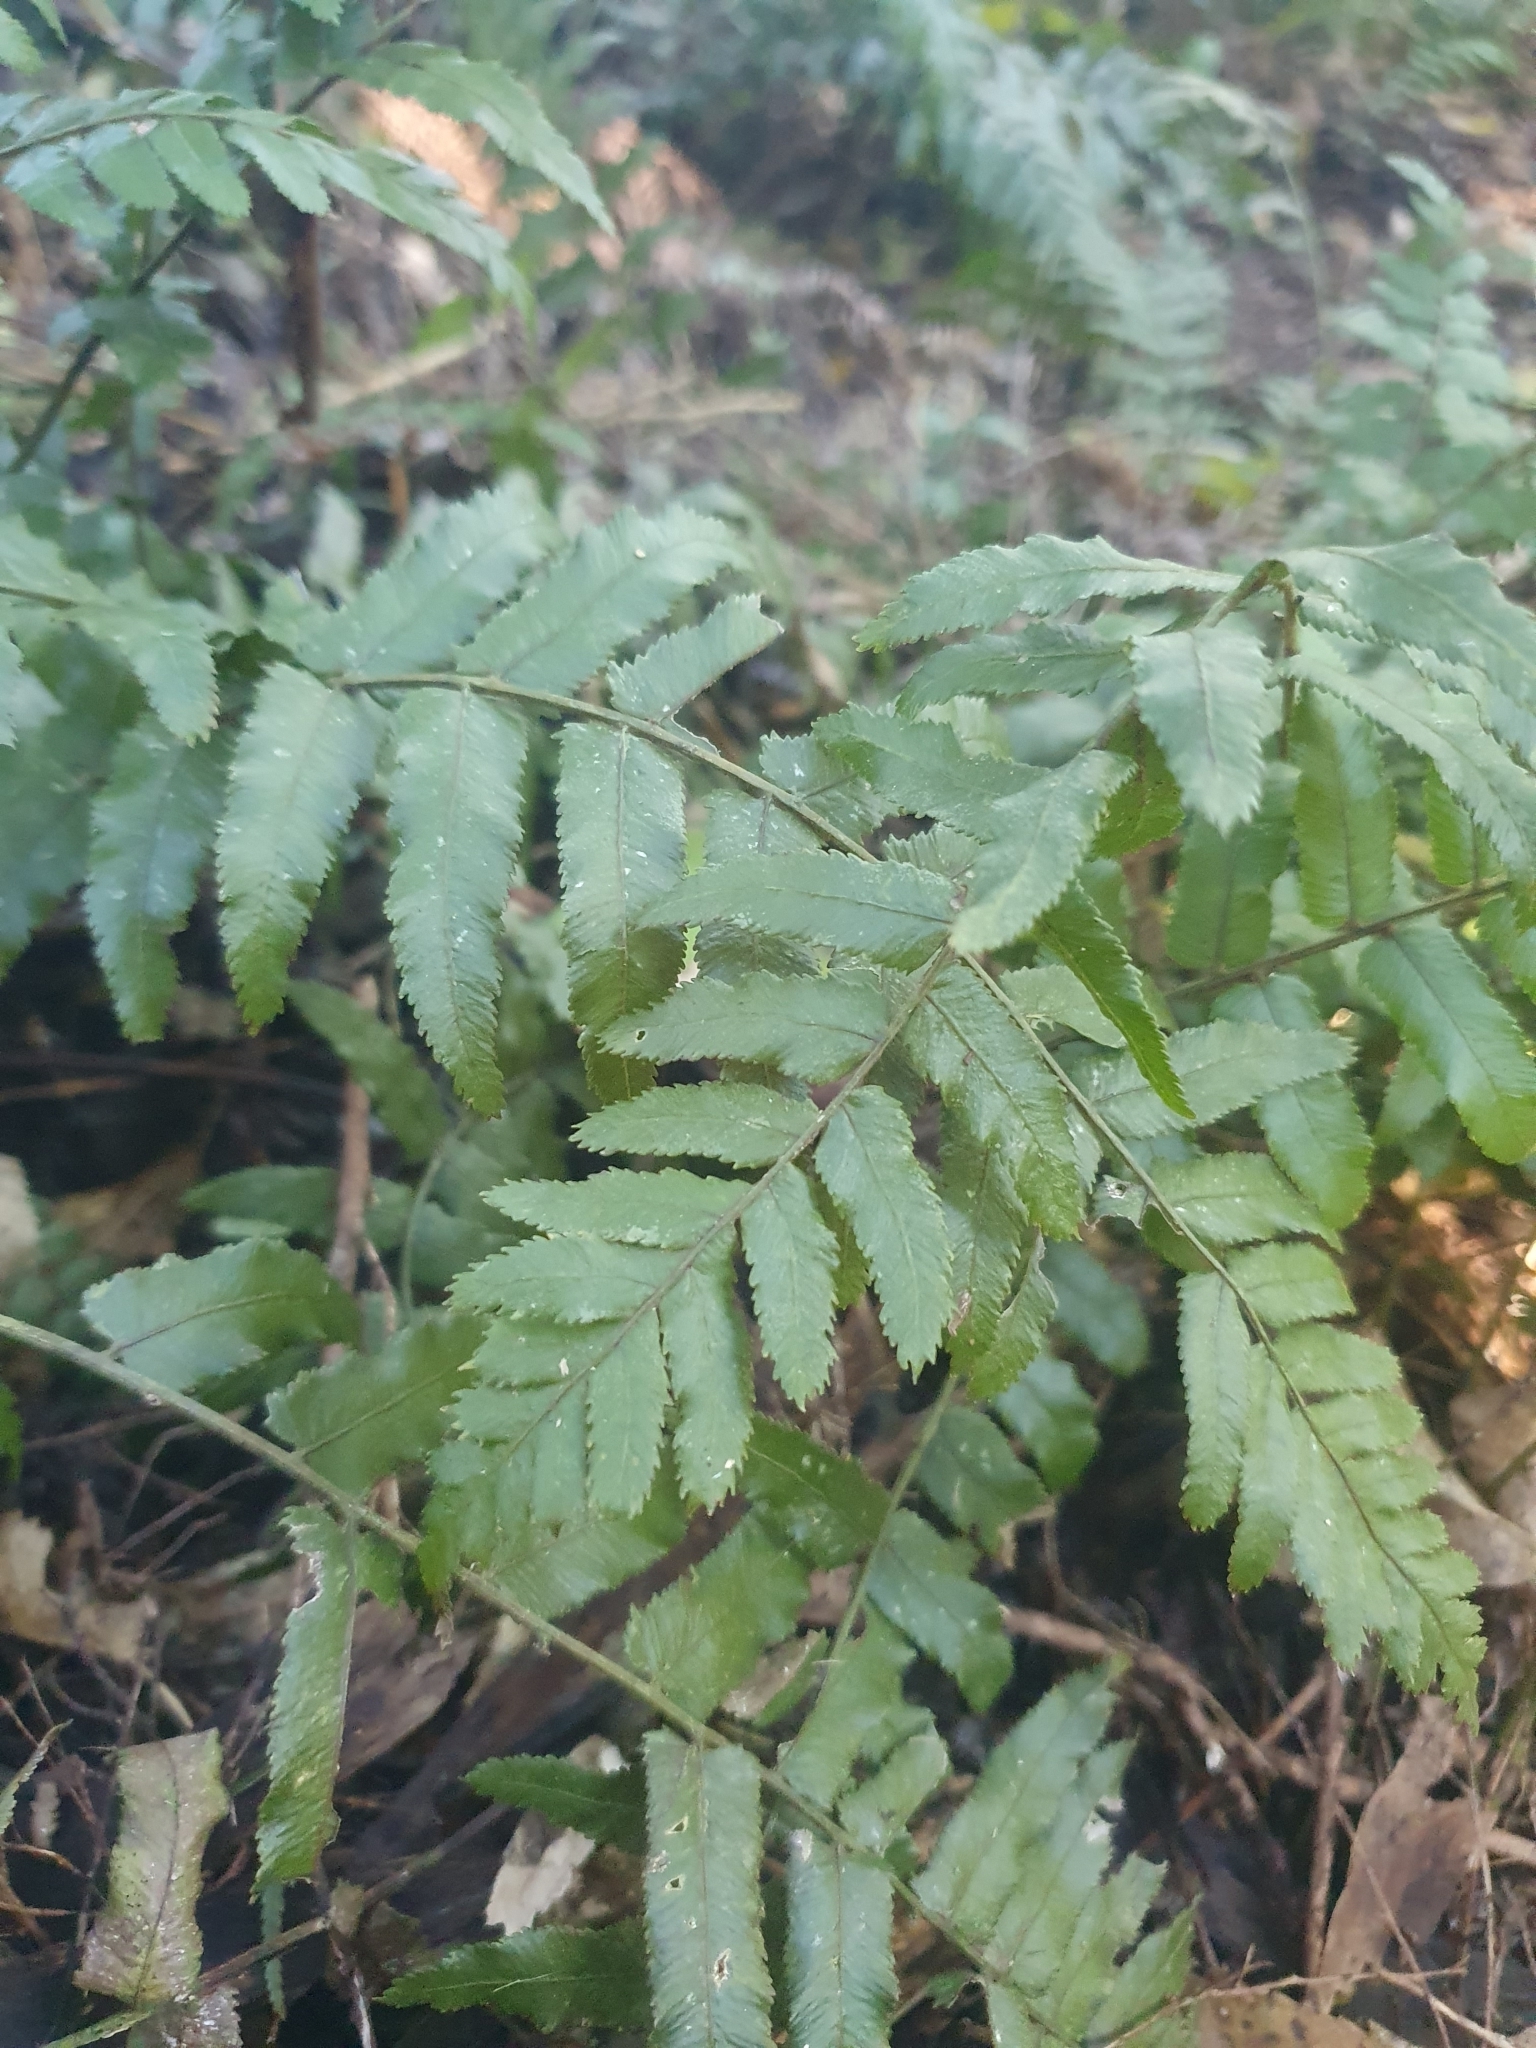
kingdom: Plantae
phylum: Tracheophyta
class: Polypodiopsida
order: Polypodiales
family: Blechnaceae
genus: Icarus
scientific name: Icarus filiformis
